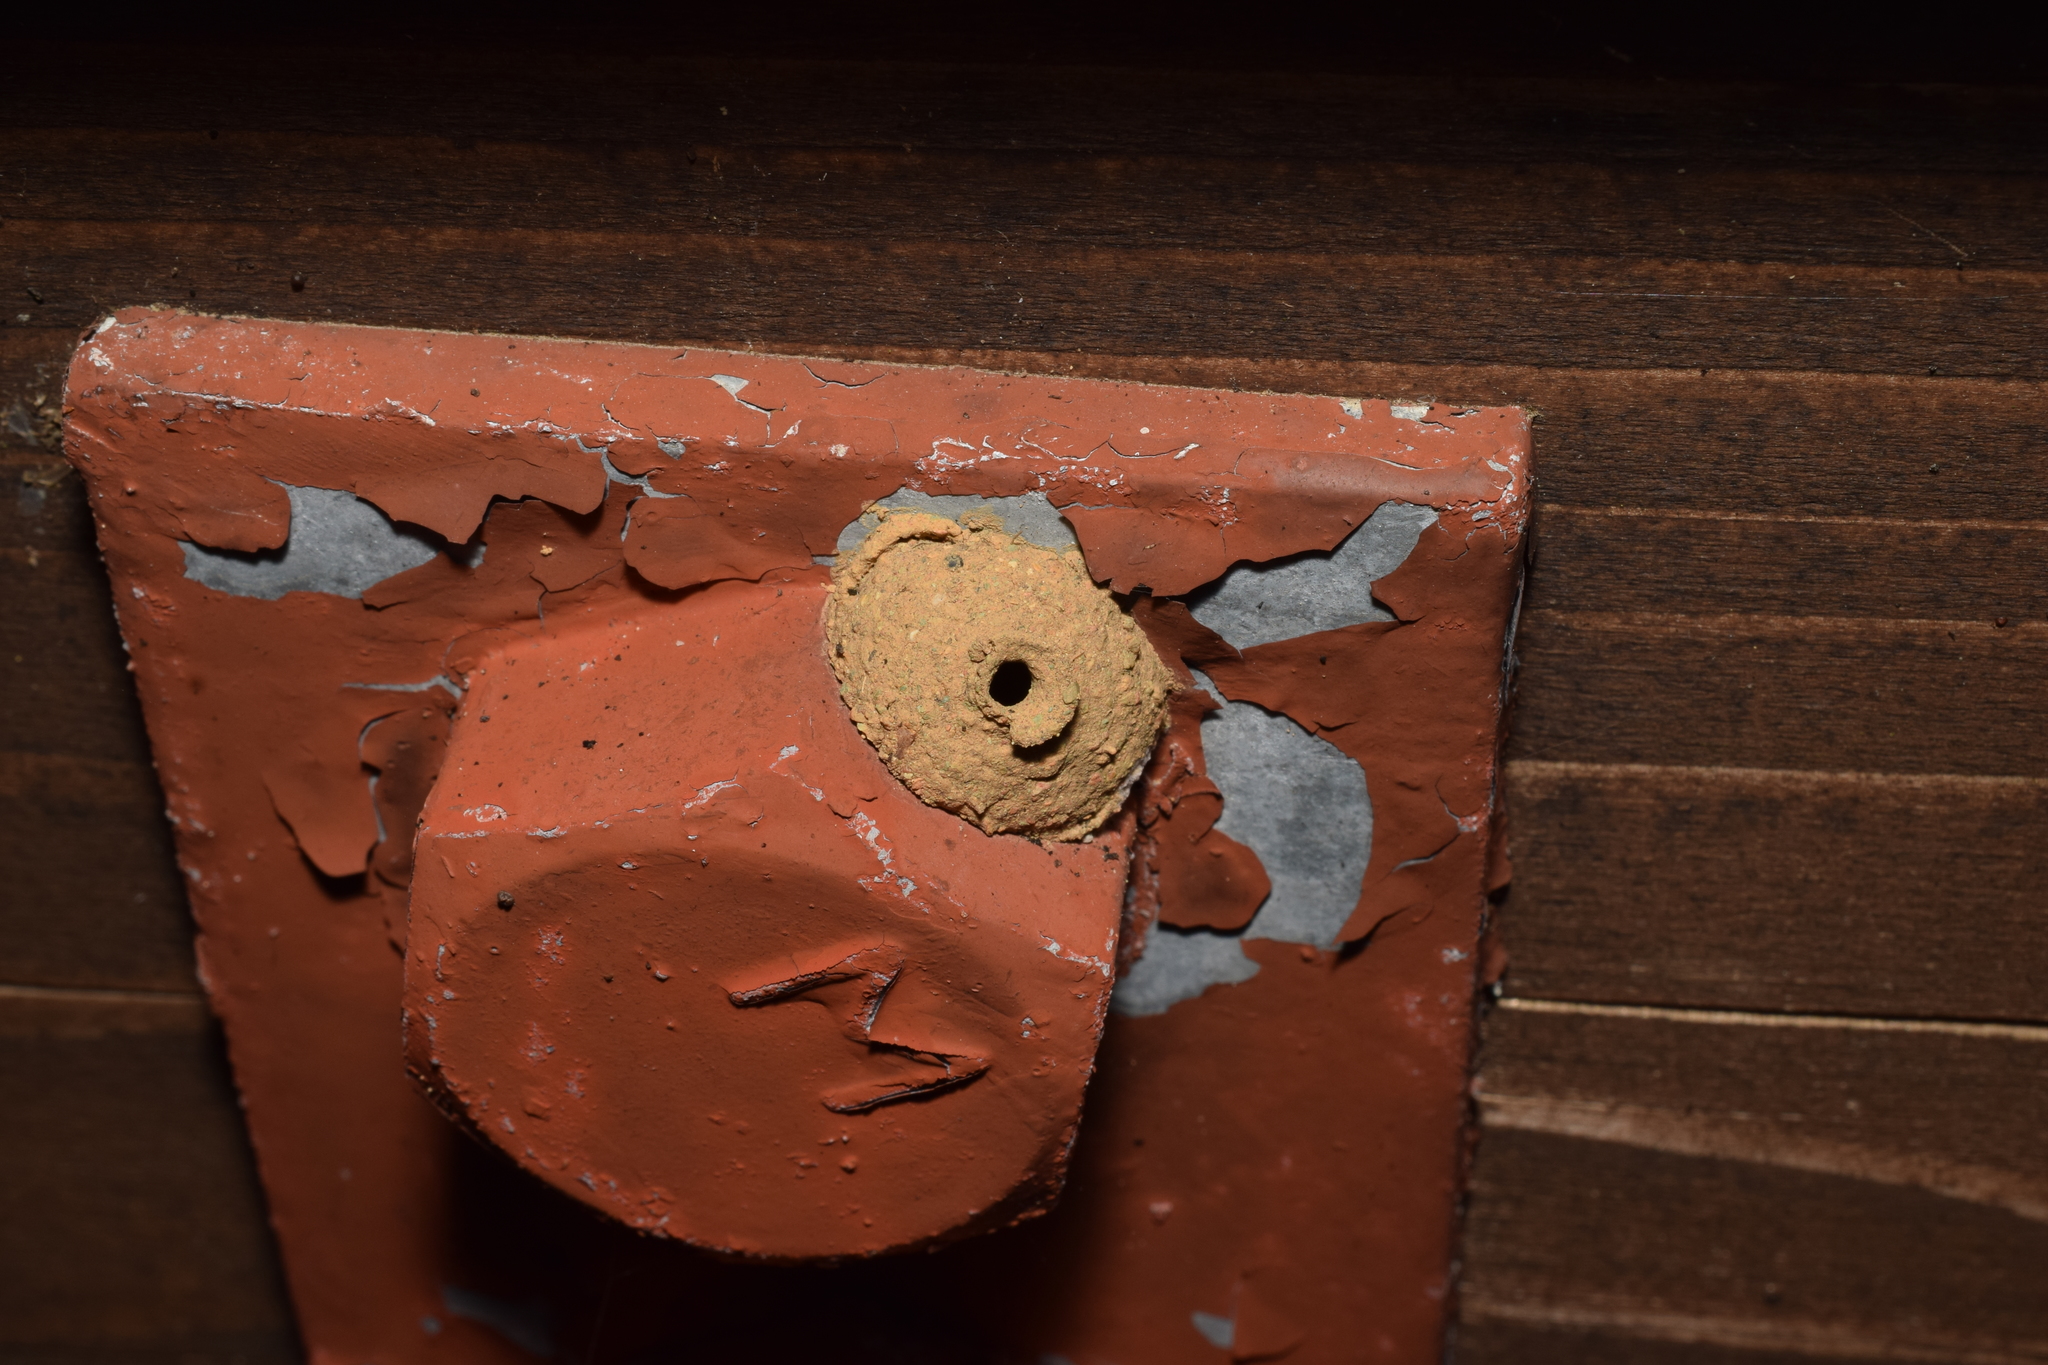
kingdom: Animalia
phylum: Arthropoda
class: Insecta
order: Hymenoptera
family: Eumenidae
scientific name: Eumenidae
